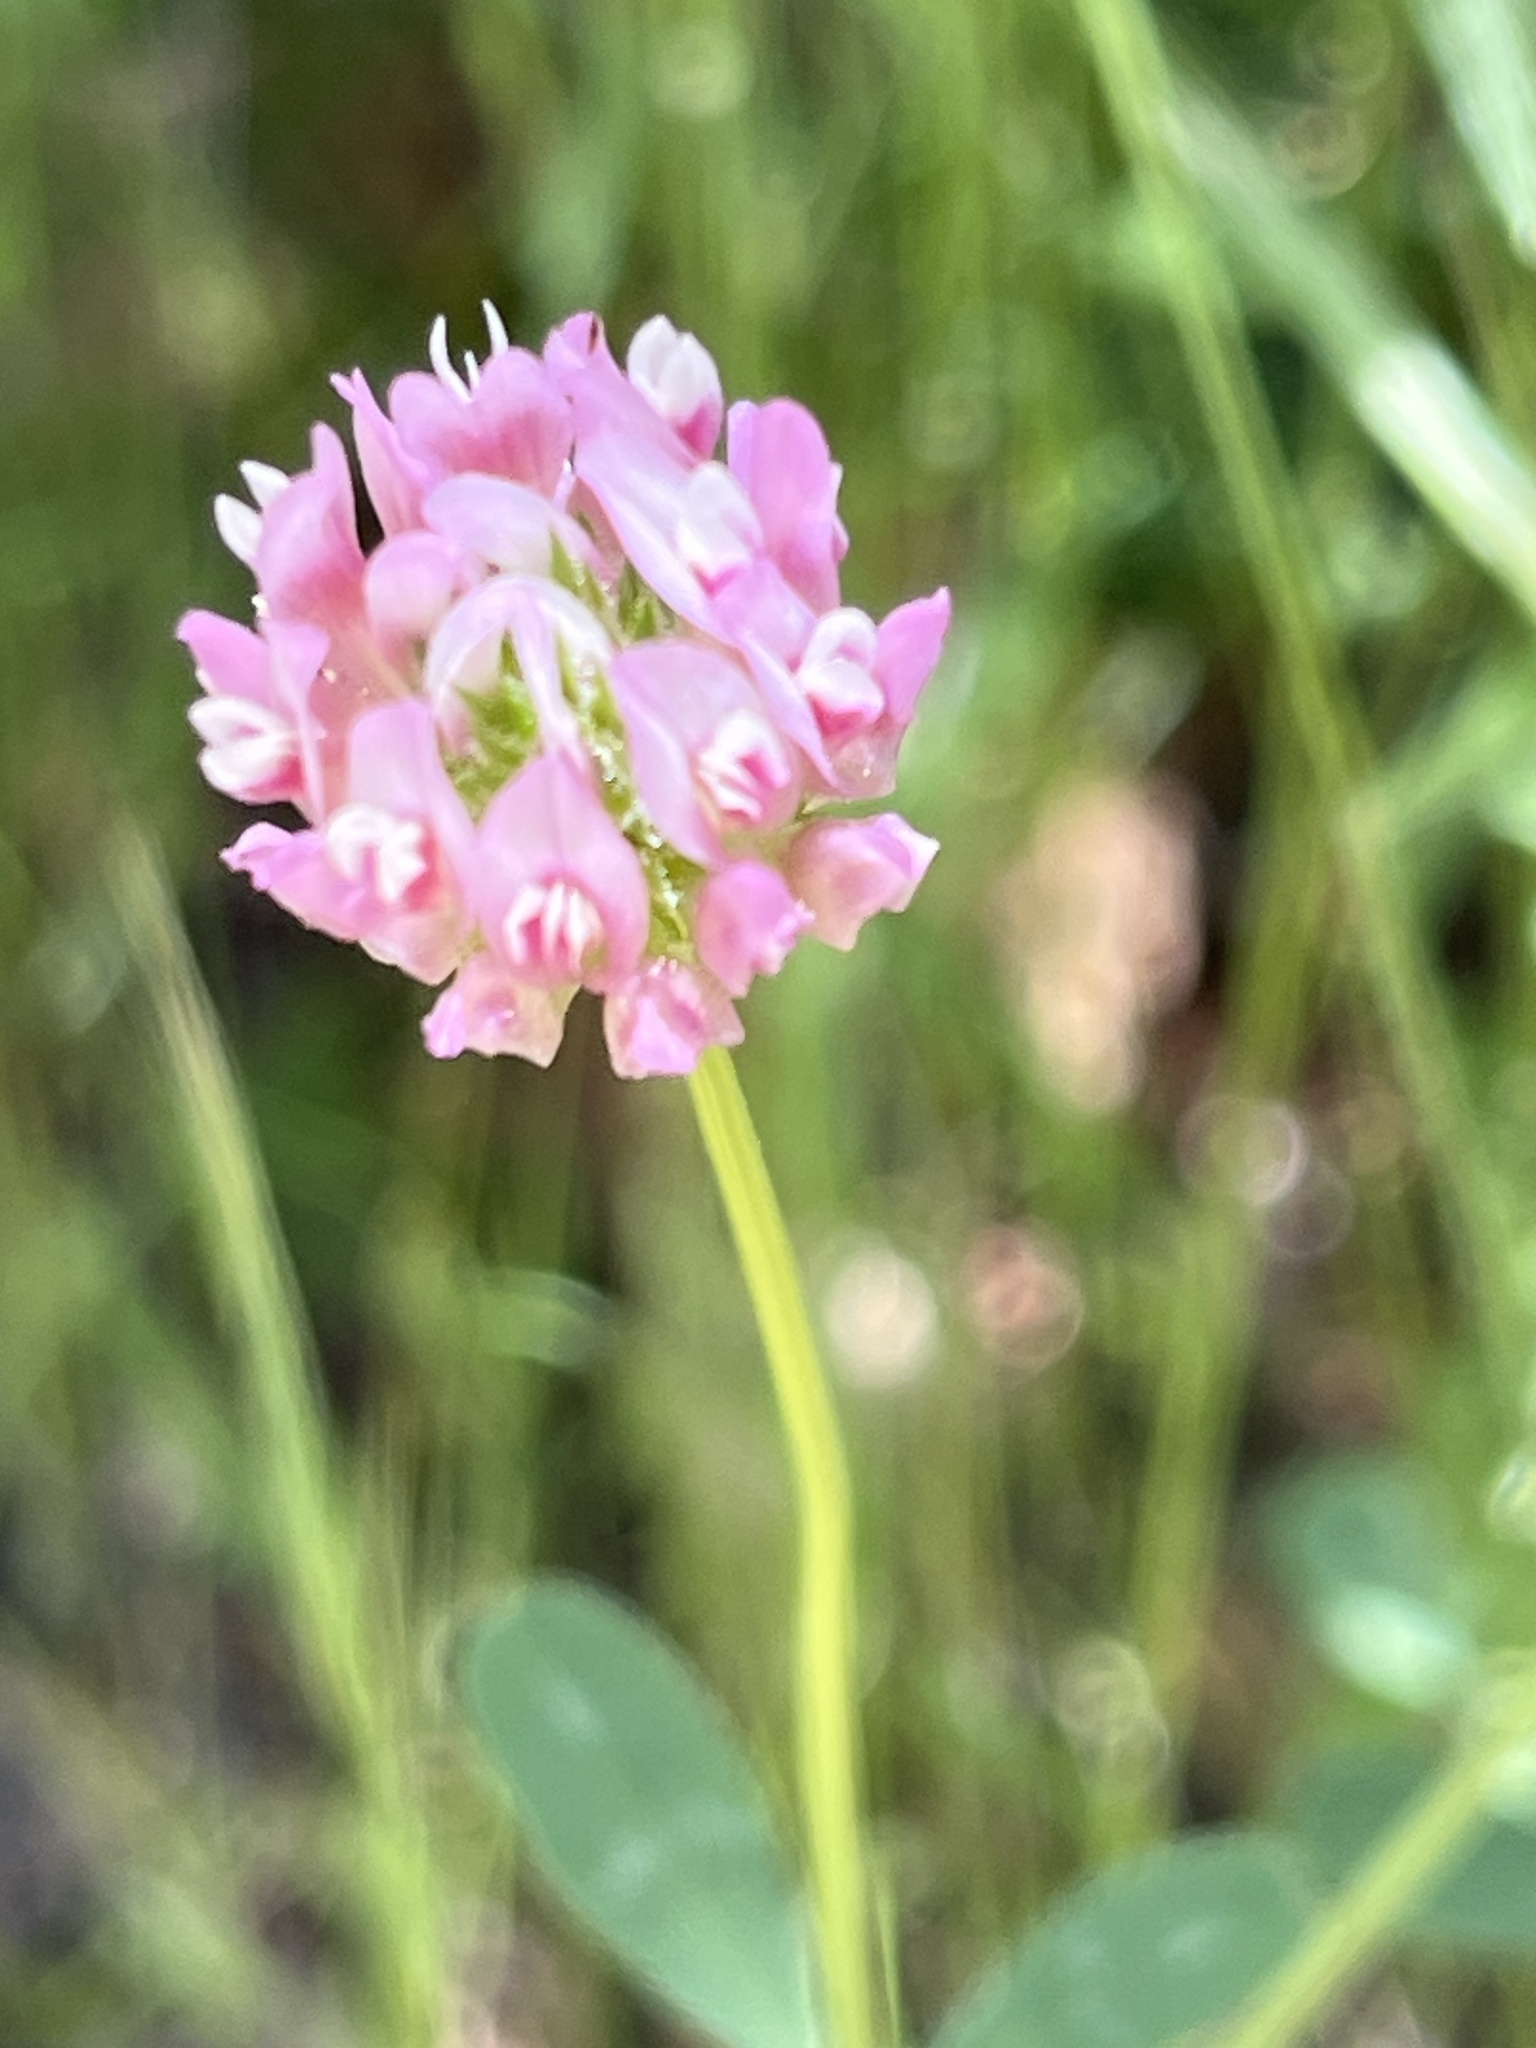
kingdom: Plantae
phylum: Tracheophyta
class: Magnoliopsida
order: Fabales
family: Fabaceae
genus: Trifolium
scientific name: Trifolium ciliolatum
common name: Foothill clover
